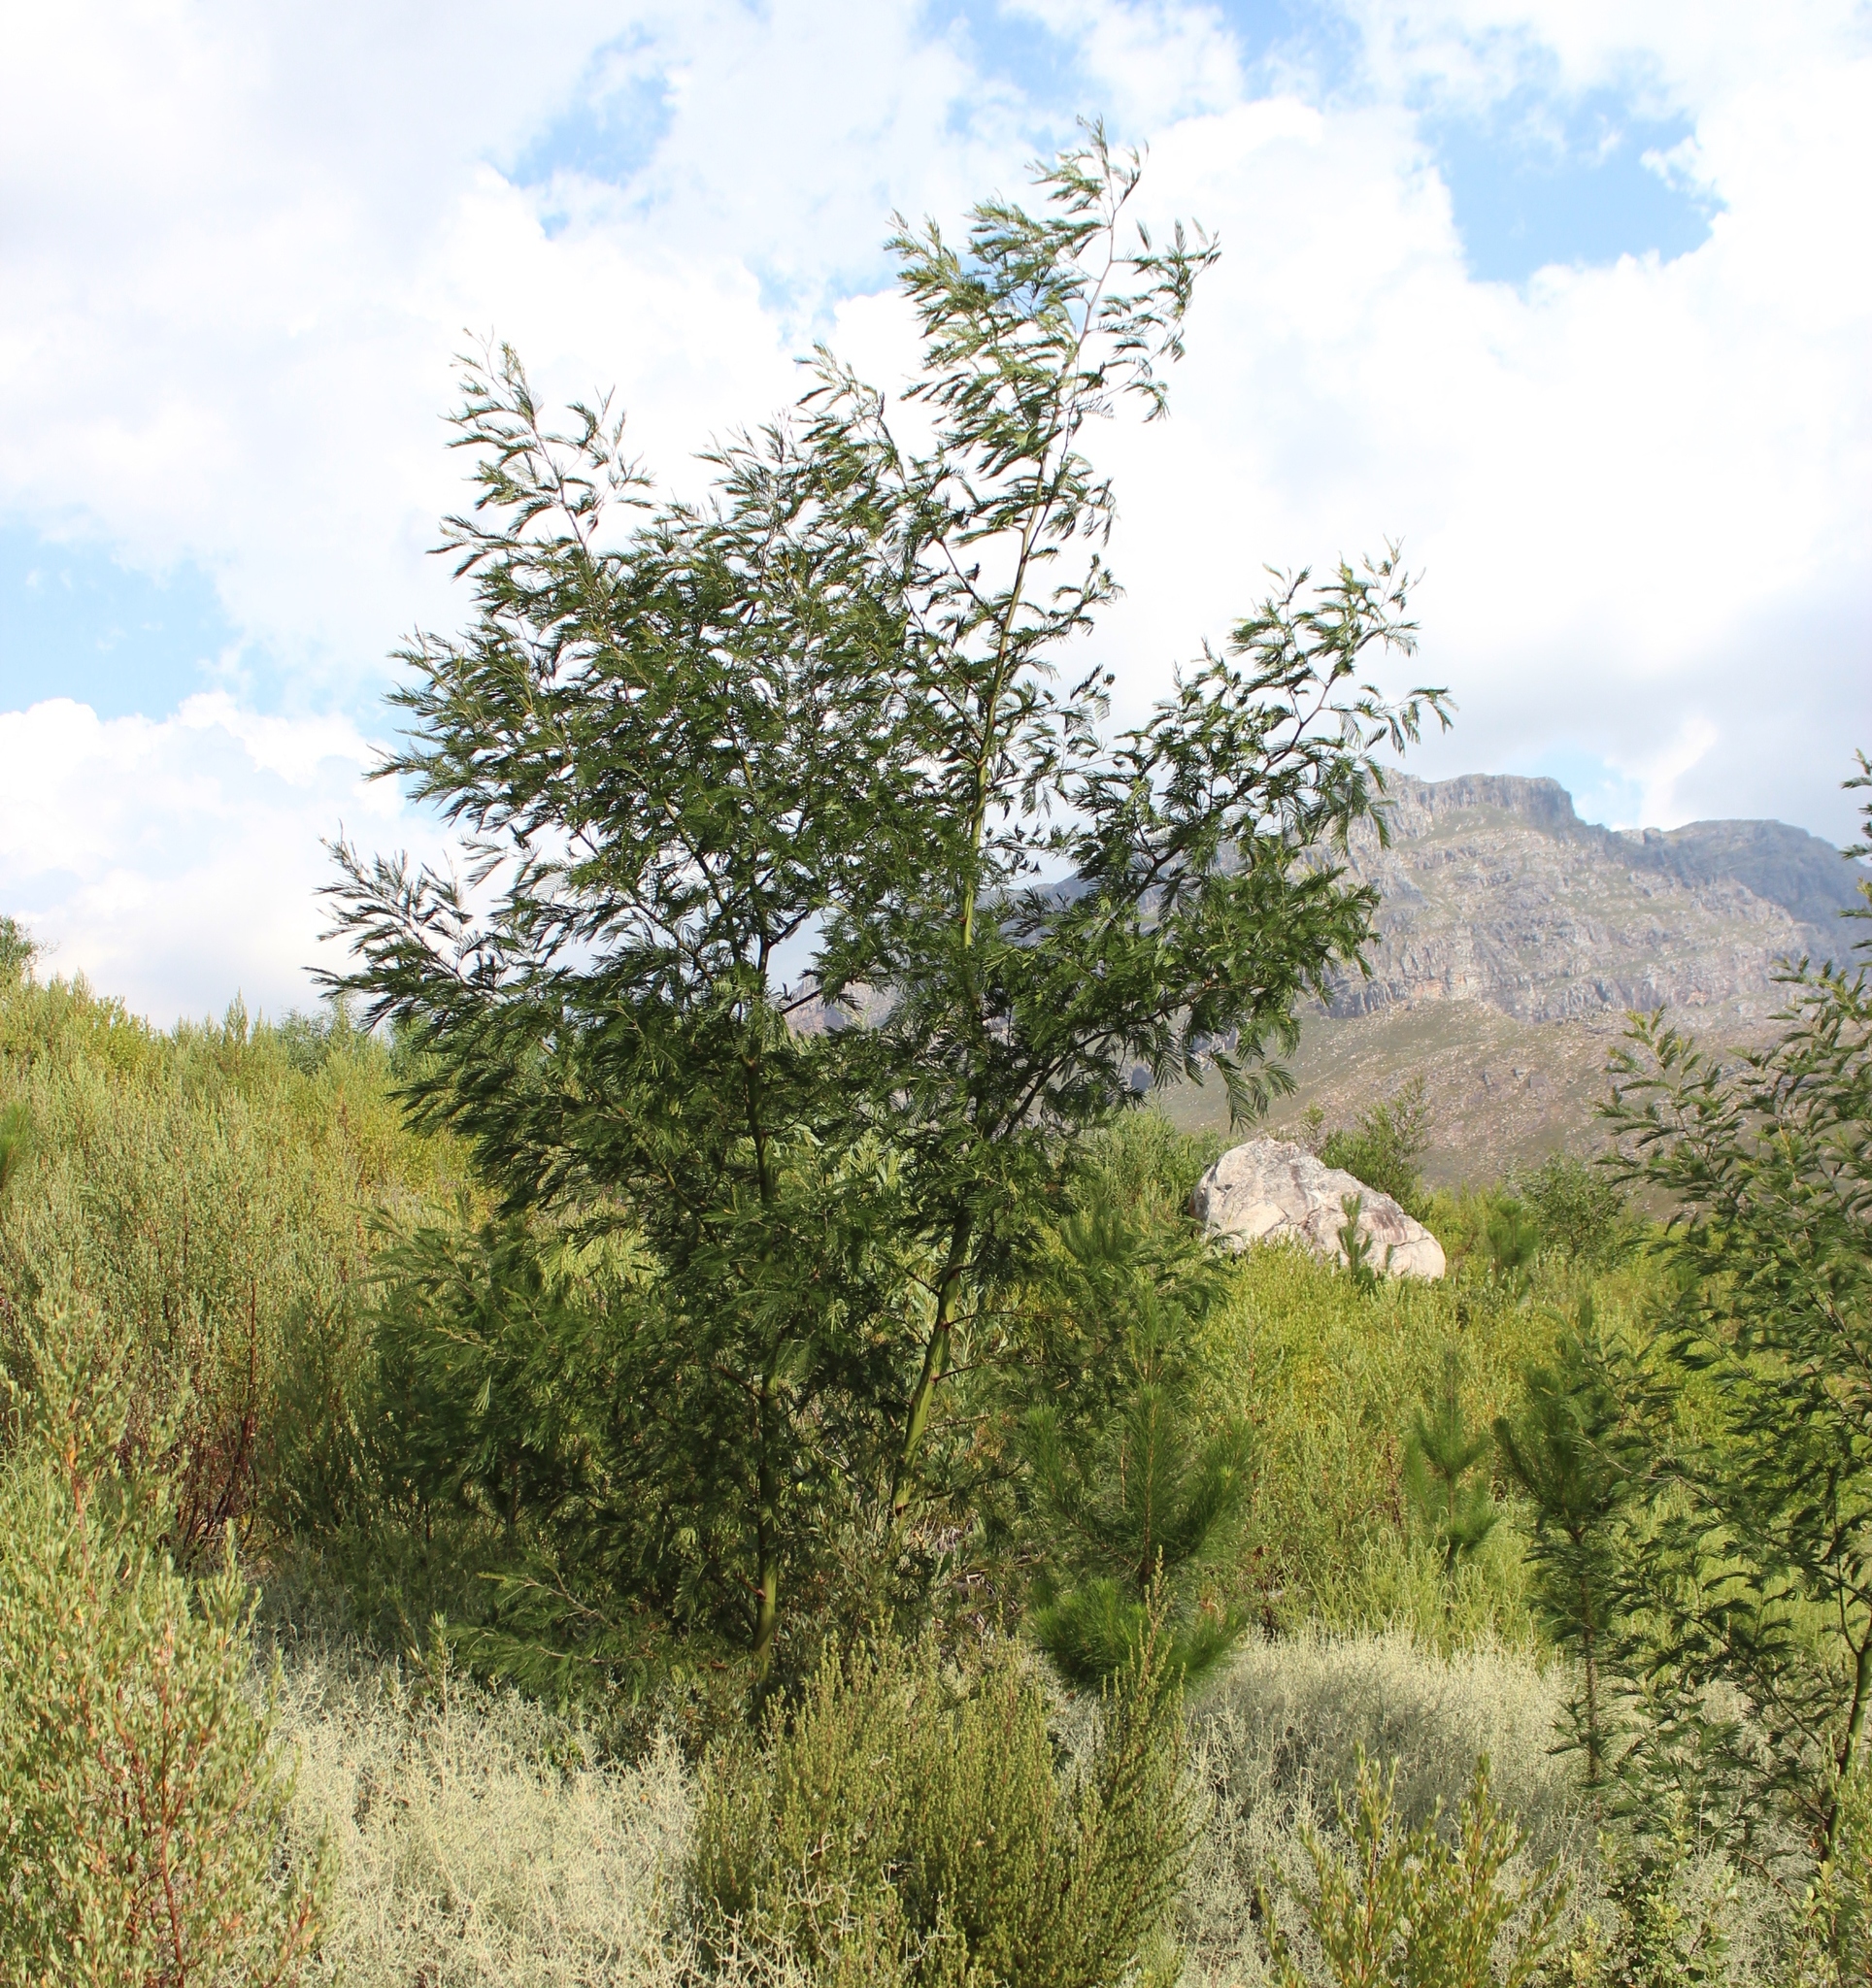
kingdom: Plantae
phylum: Tracheophyta
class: Magnoliopsida
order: Fabales
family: Fabaceae
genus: Acacia
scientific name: Acacia mearnsii
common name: Black wattle
